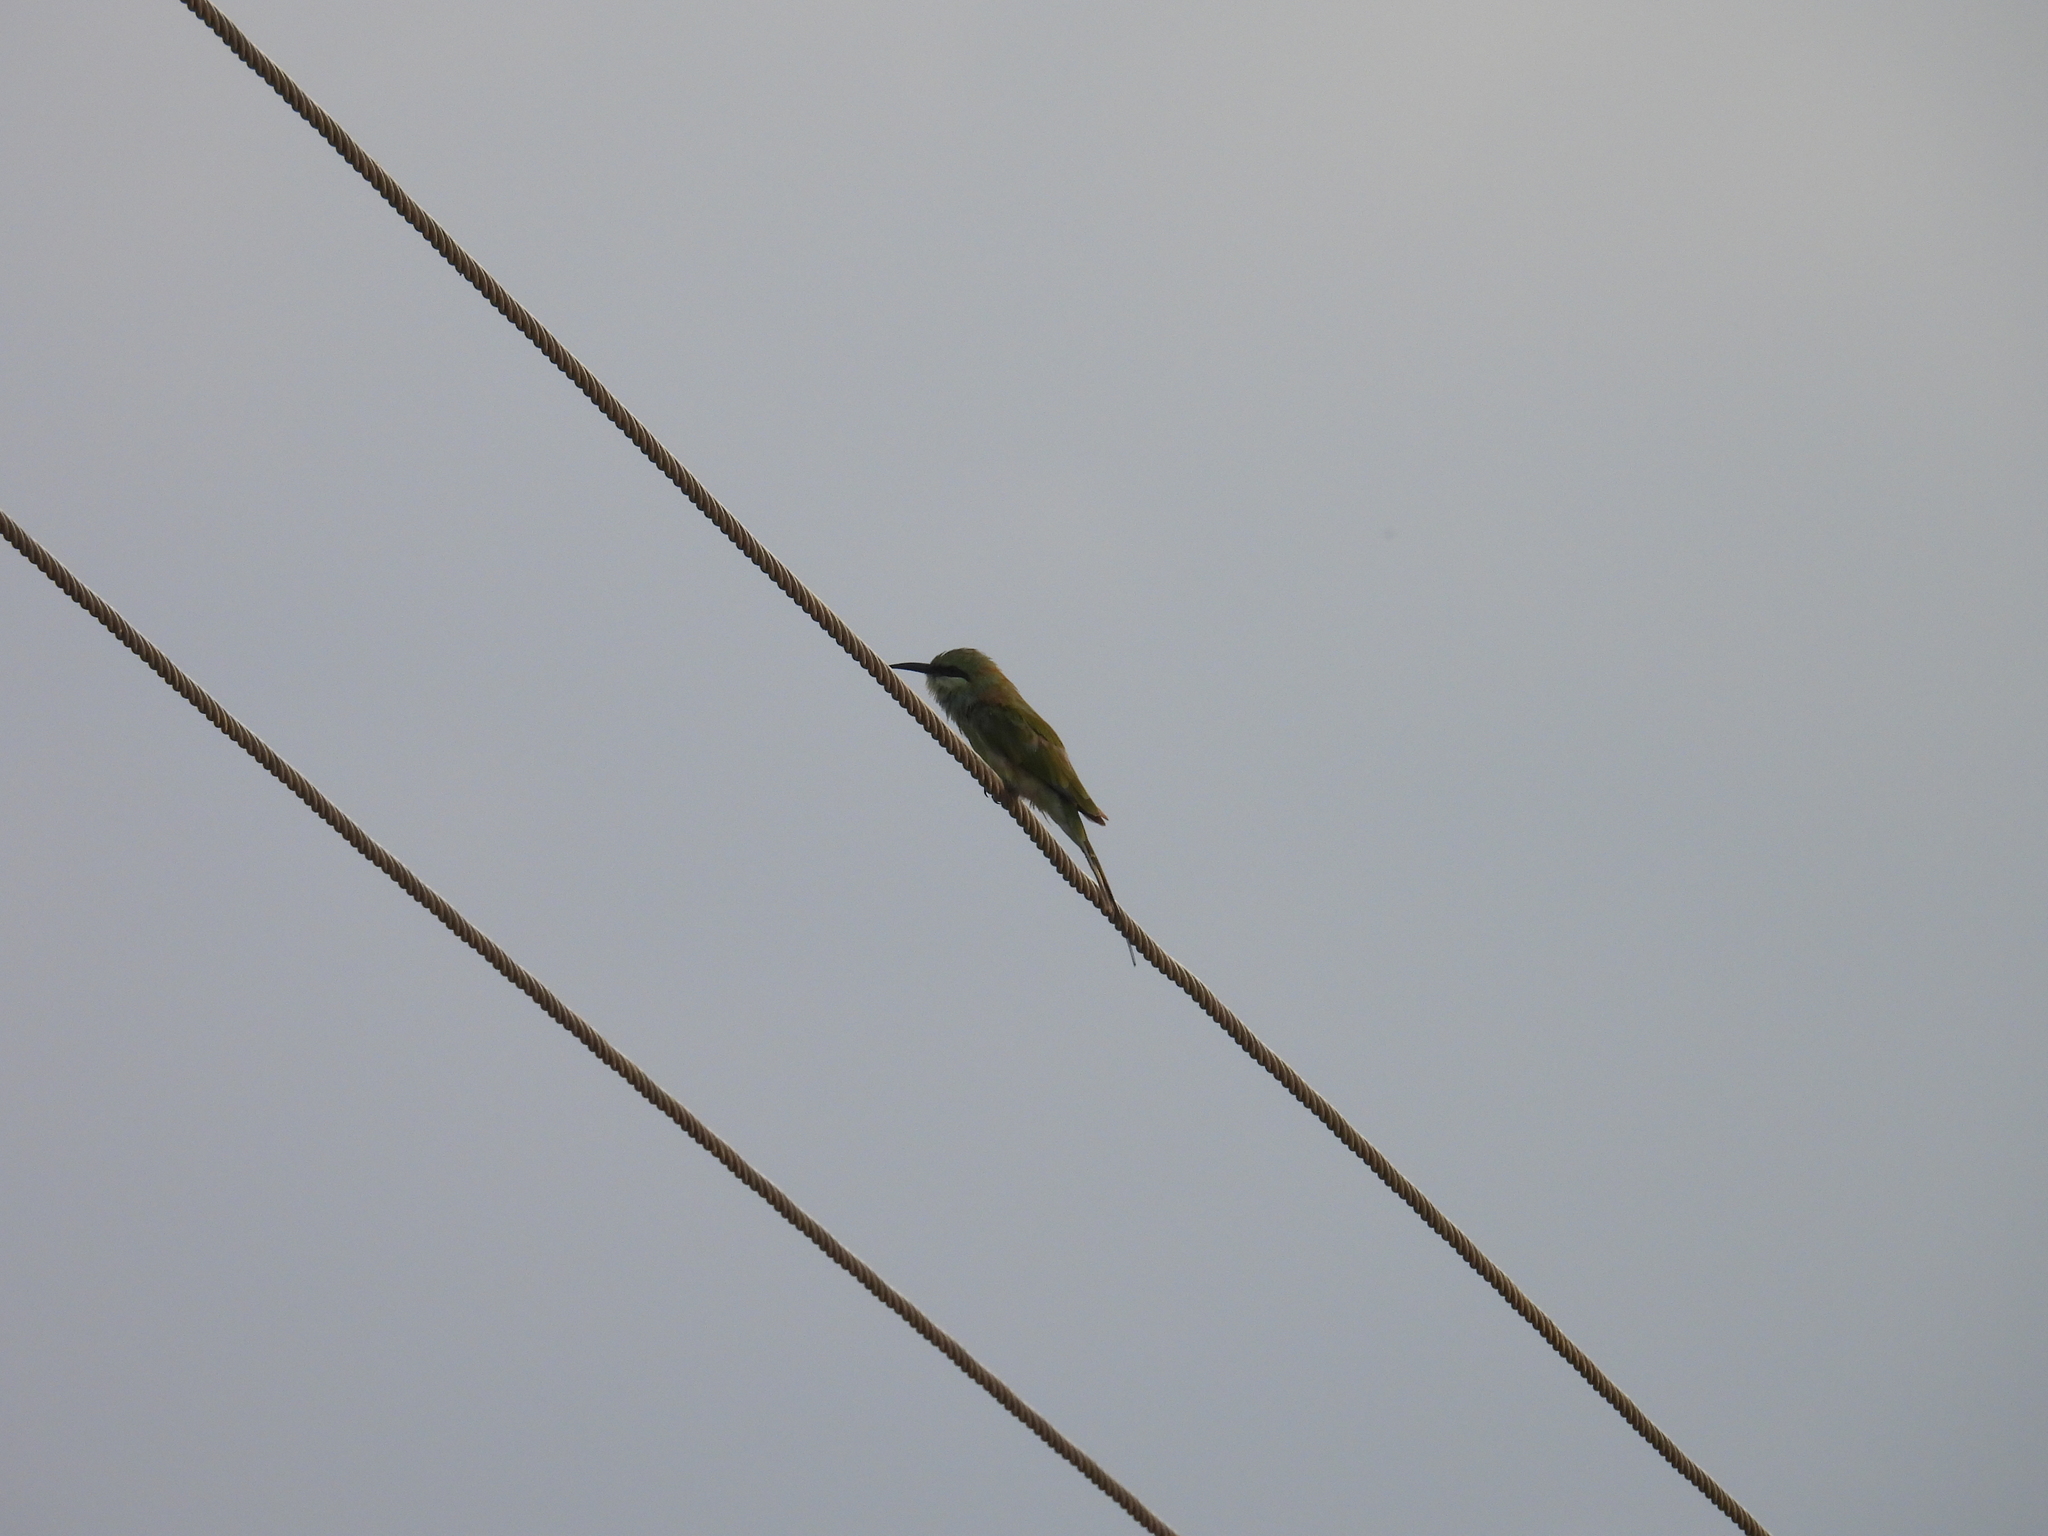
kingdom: Animalia
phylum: Chordata
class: Aves
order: Coraciiformes
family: Meropidae
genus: Merops
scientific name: Merops orientalis
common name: Green bee-eater
